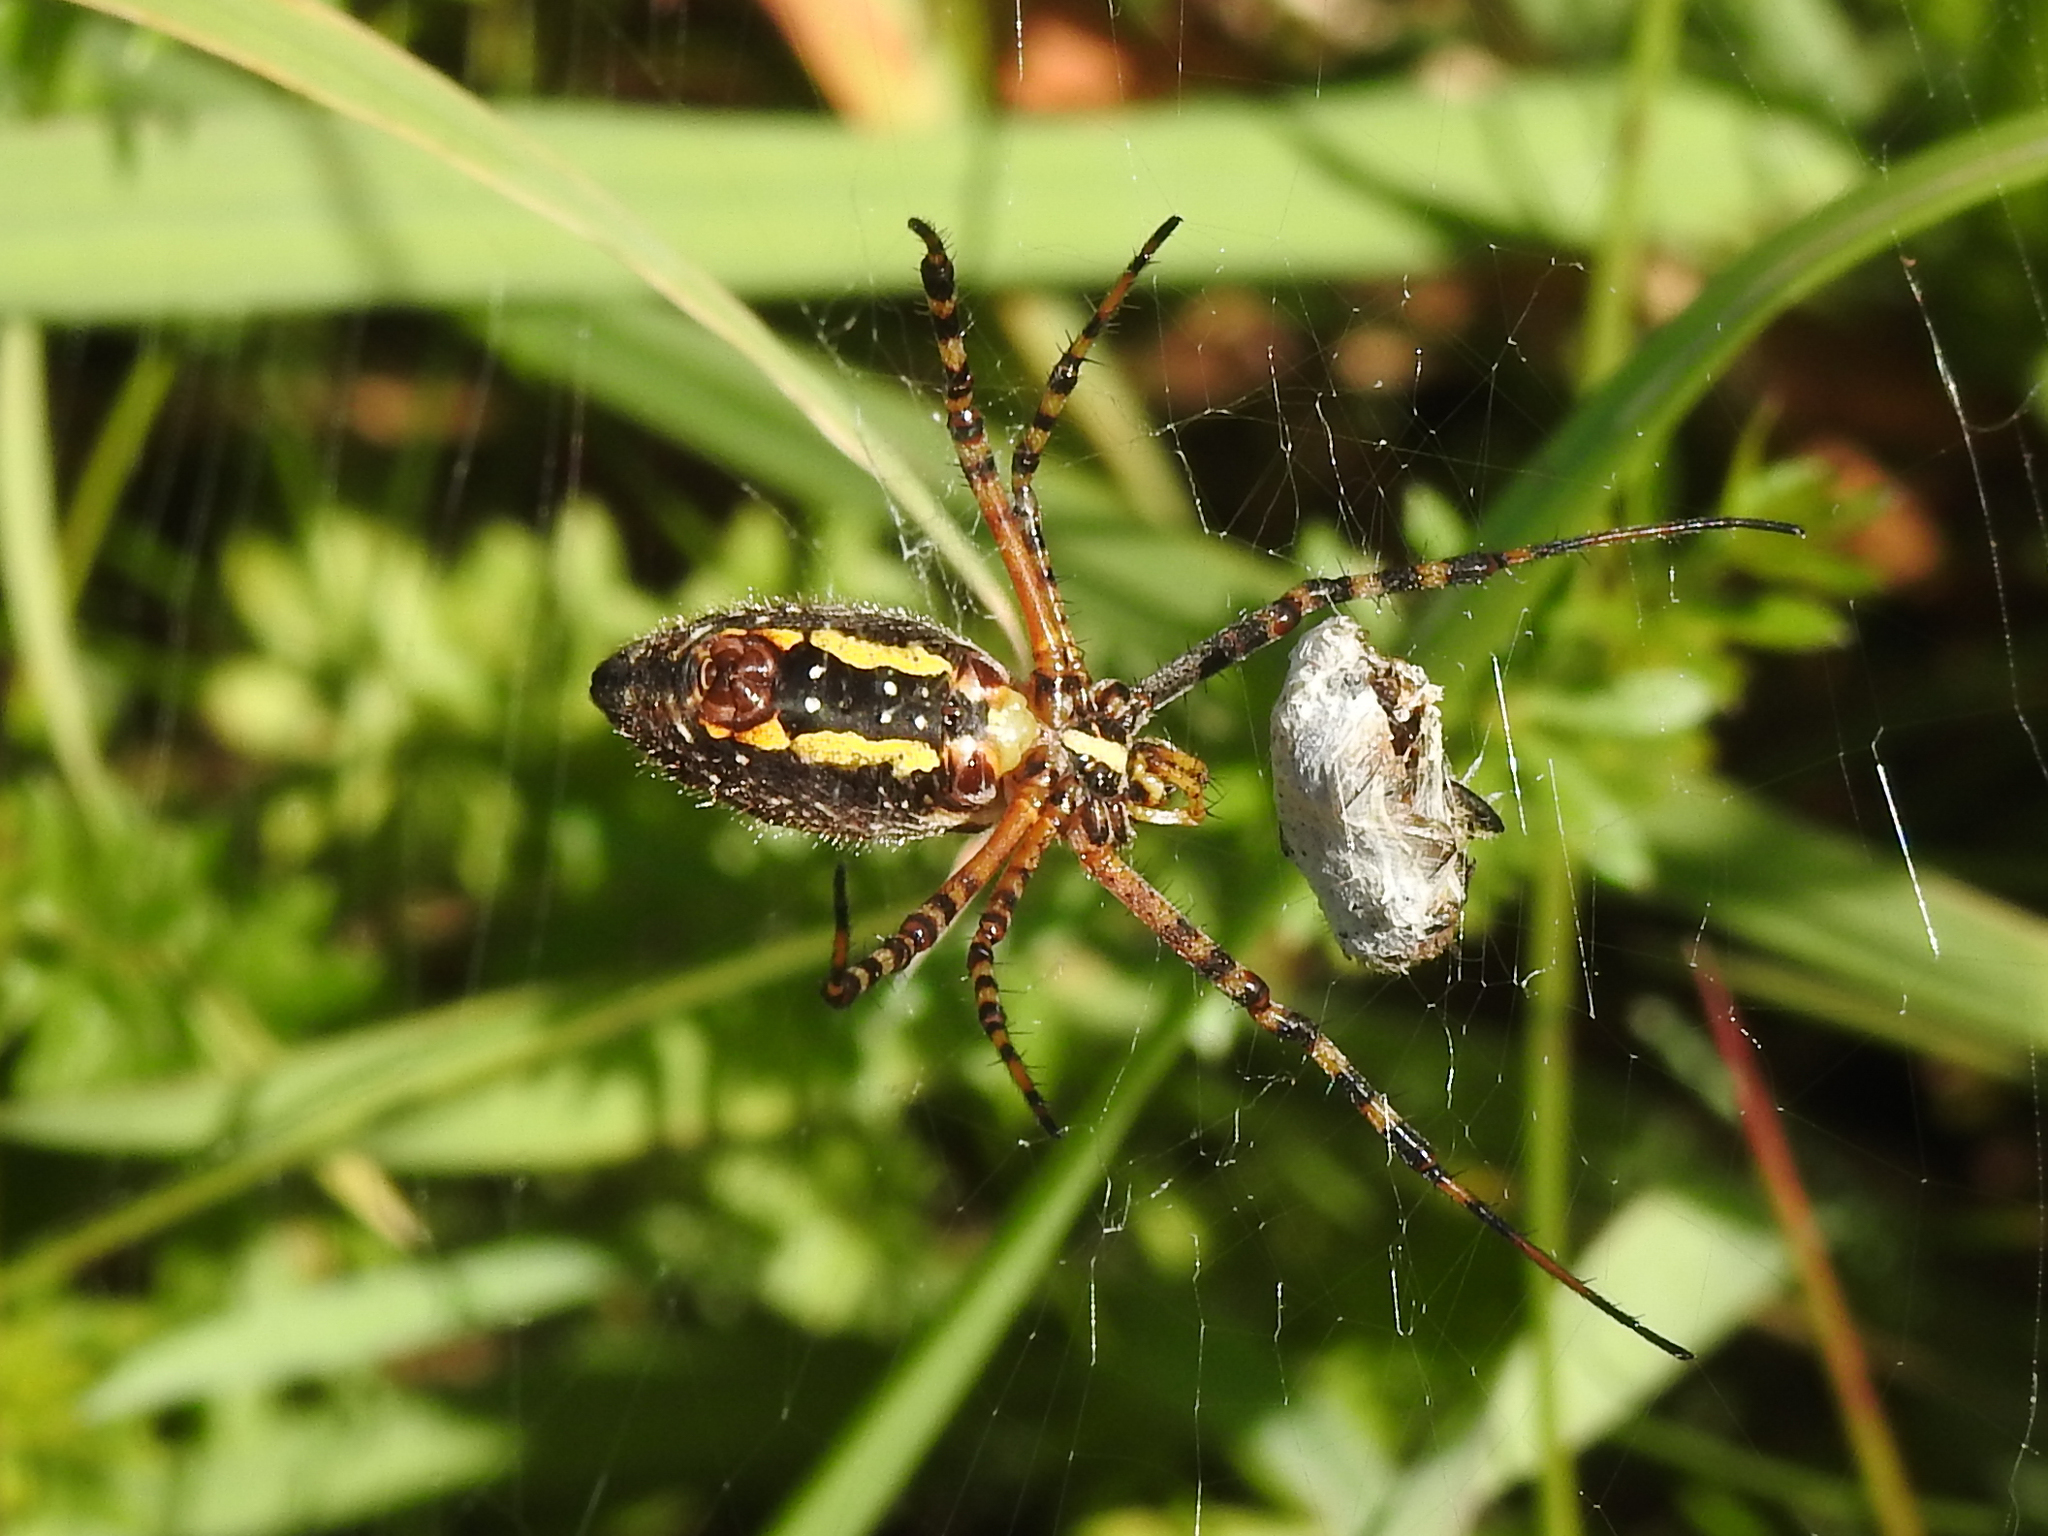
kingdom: Animalia
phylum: Arthropoda
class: Arachnida
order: Araneae
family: Araneidae
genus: Argiope
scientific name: Argiope trifasciata
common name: Banded garden spider
